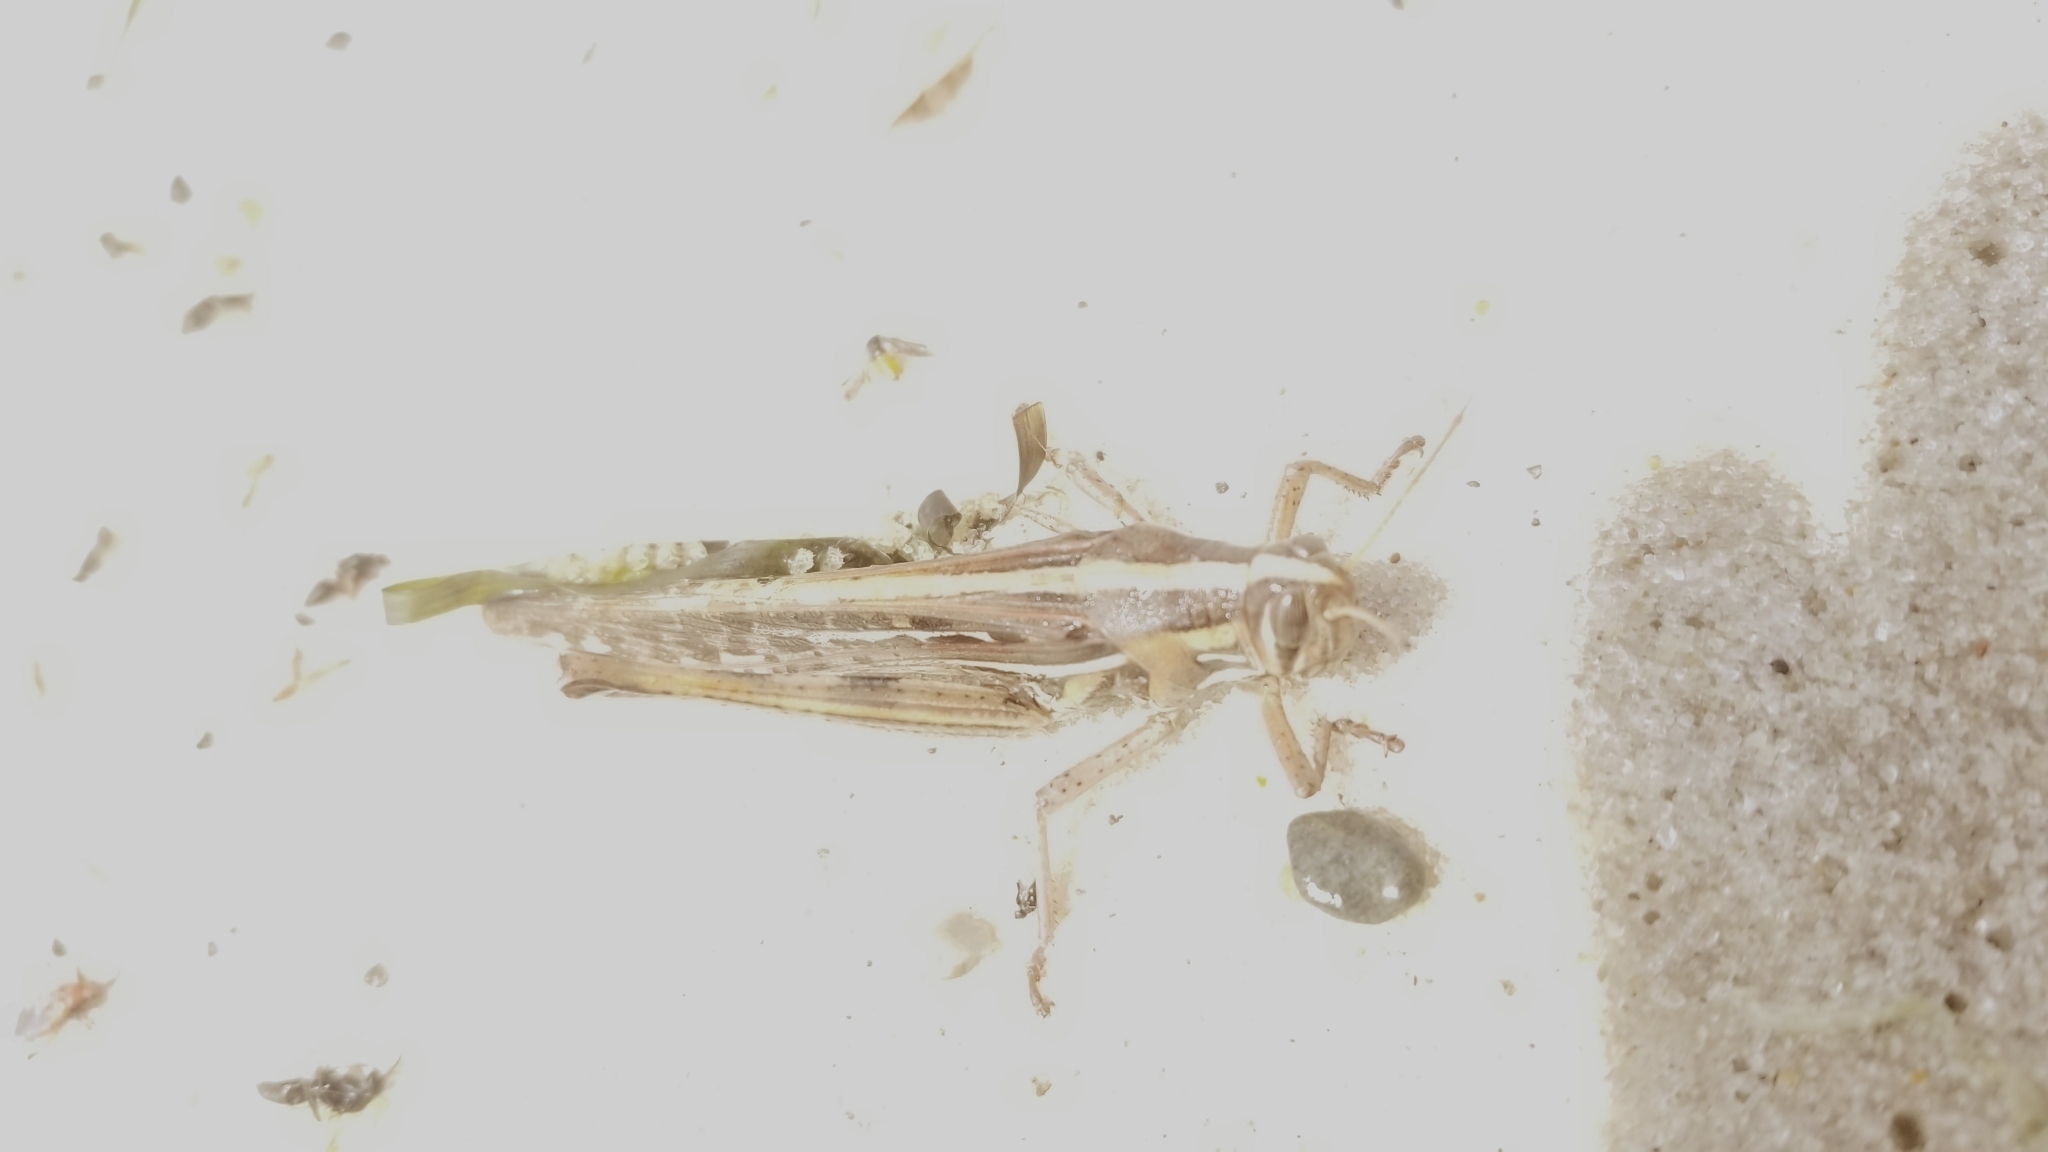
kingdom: Animalia
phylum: Arthropoda
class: Insecta
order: Orthoptera
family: Acrididae
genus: Schistocerca
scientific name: Schistocerca americana
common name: American bird locust
